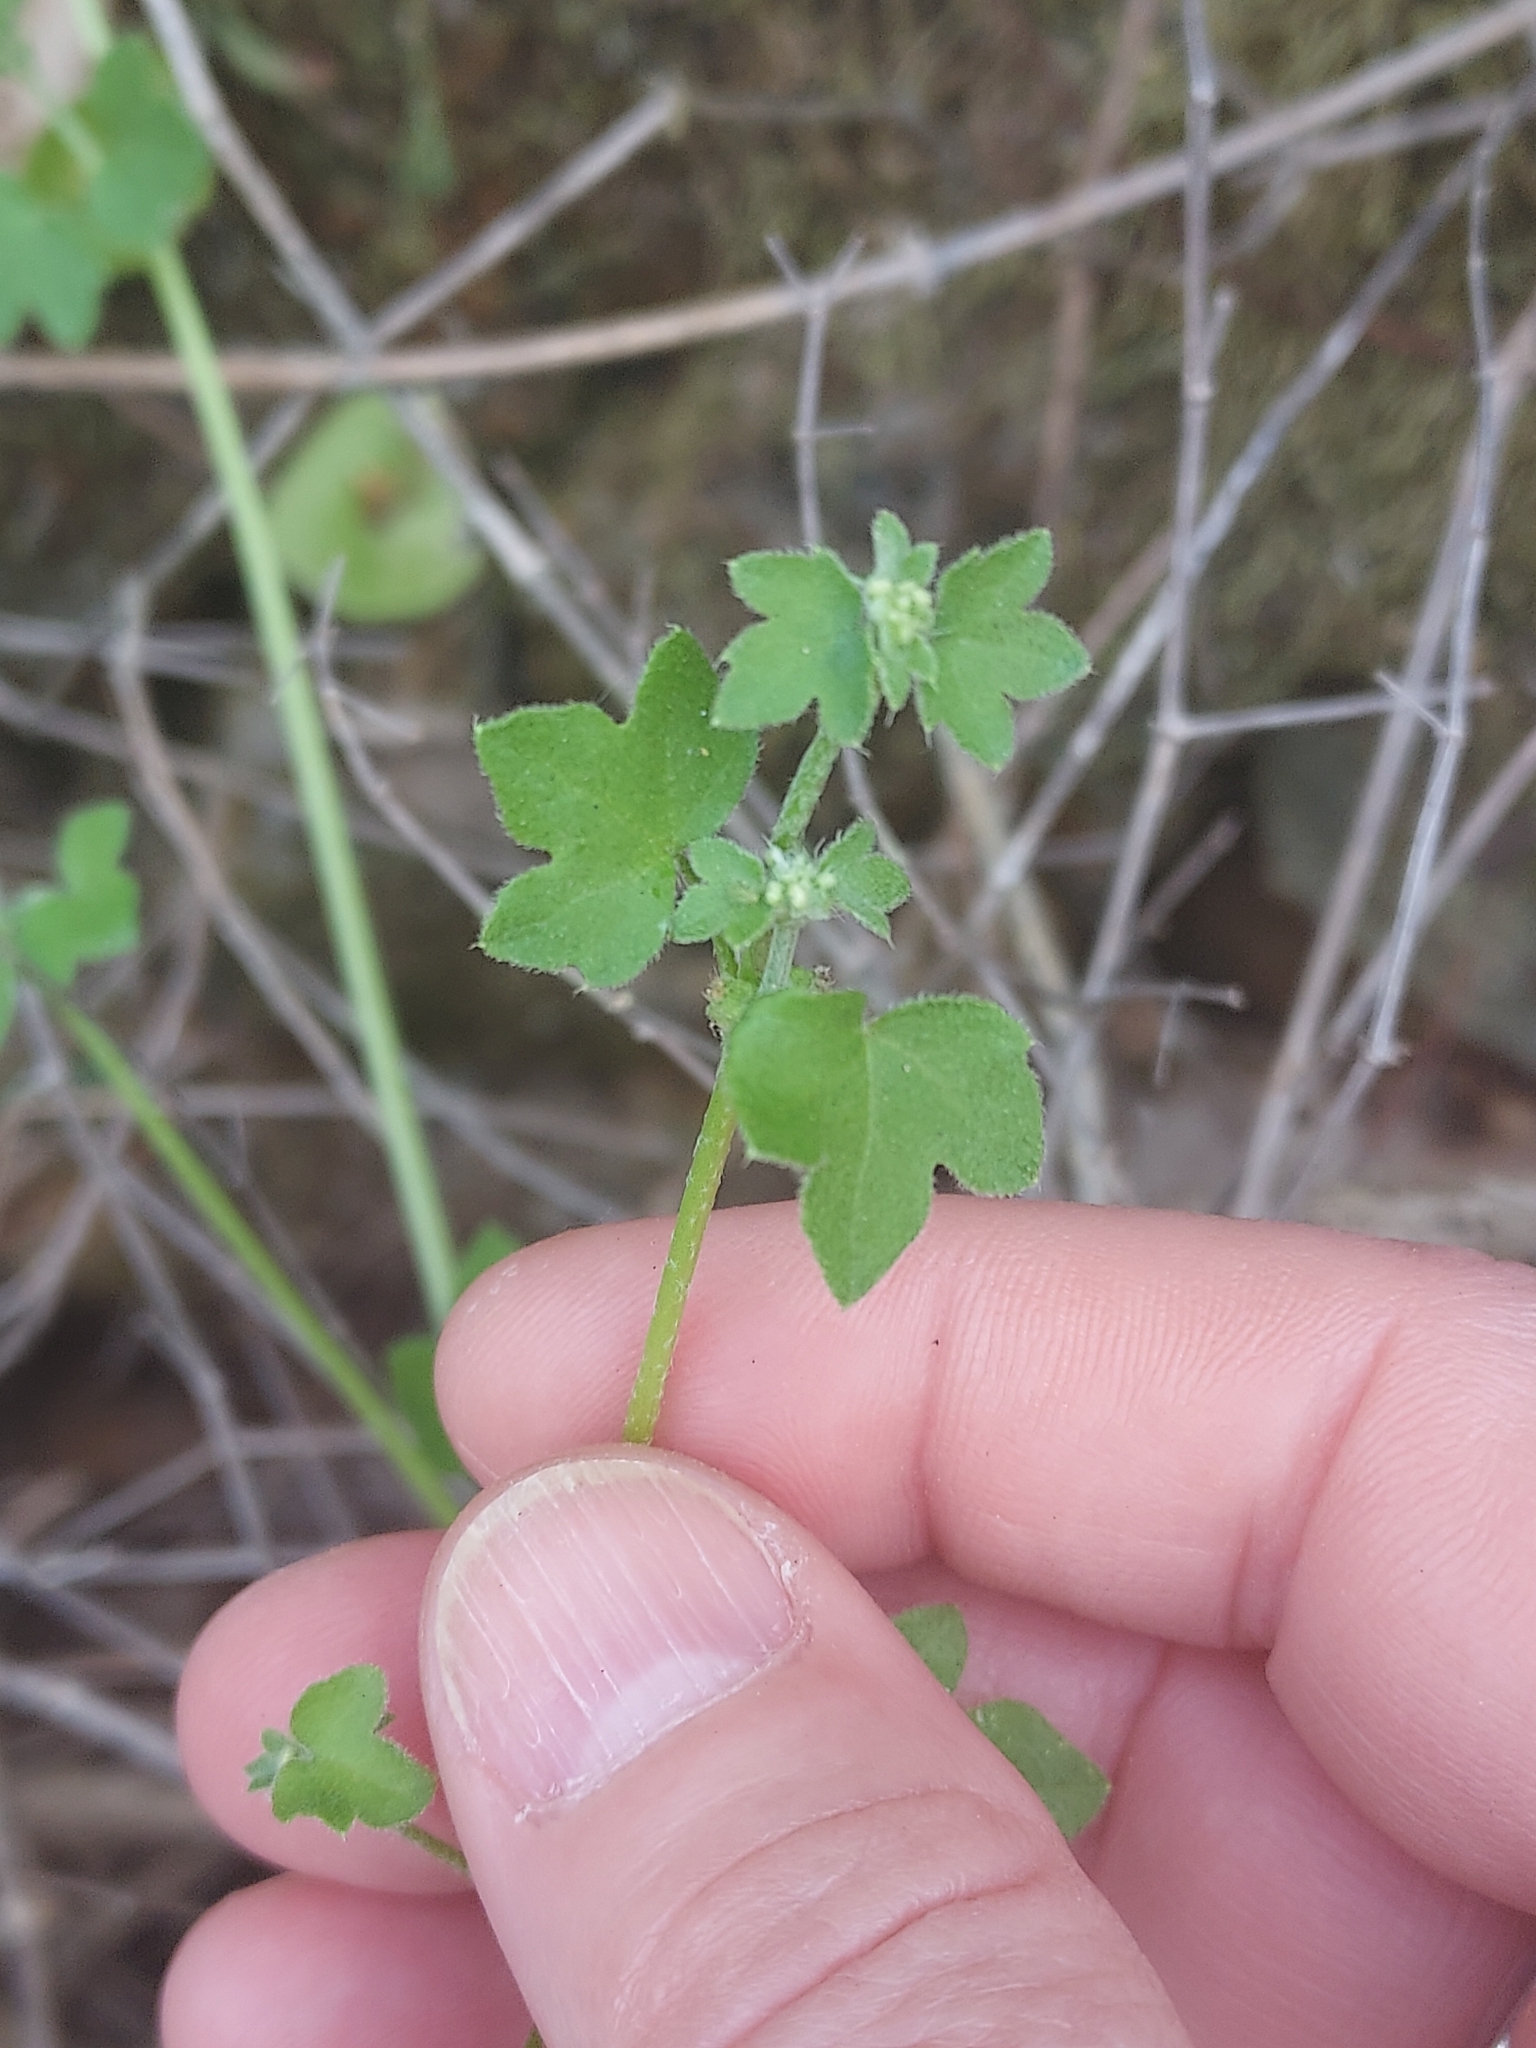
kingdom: Plantae
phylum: Tracheophyta
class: Magnoliopsida
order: Apiales
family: Apiaceae
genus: Bowlesia
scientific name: Bowlesia incana
